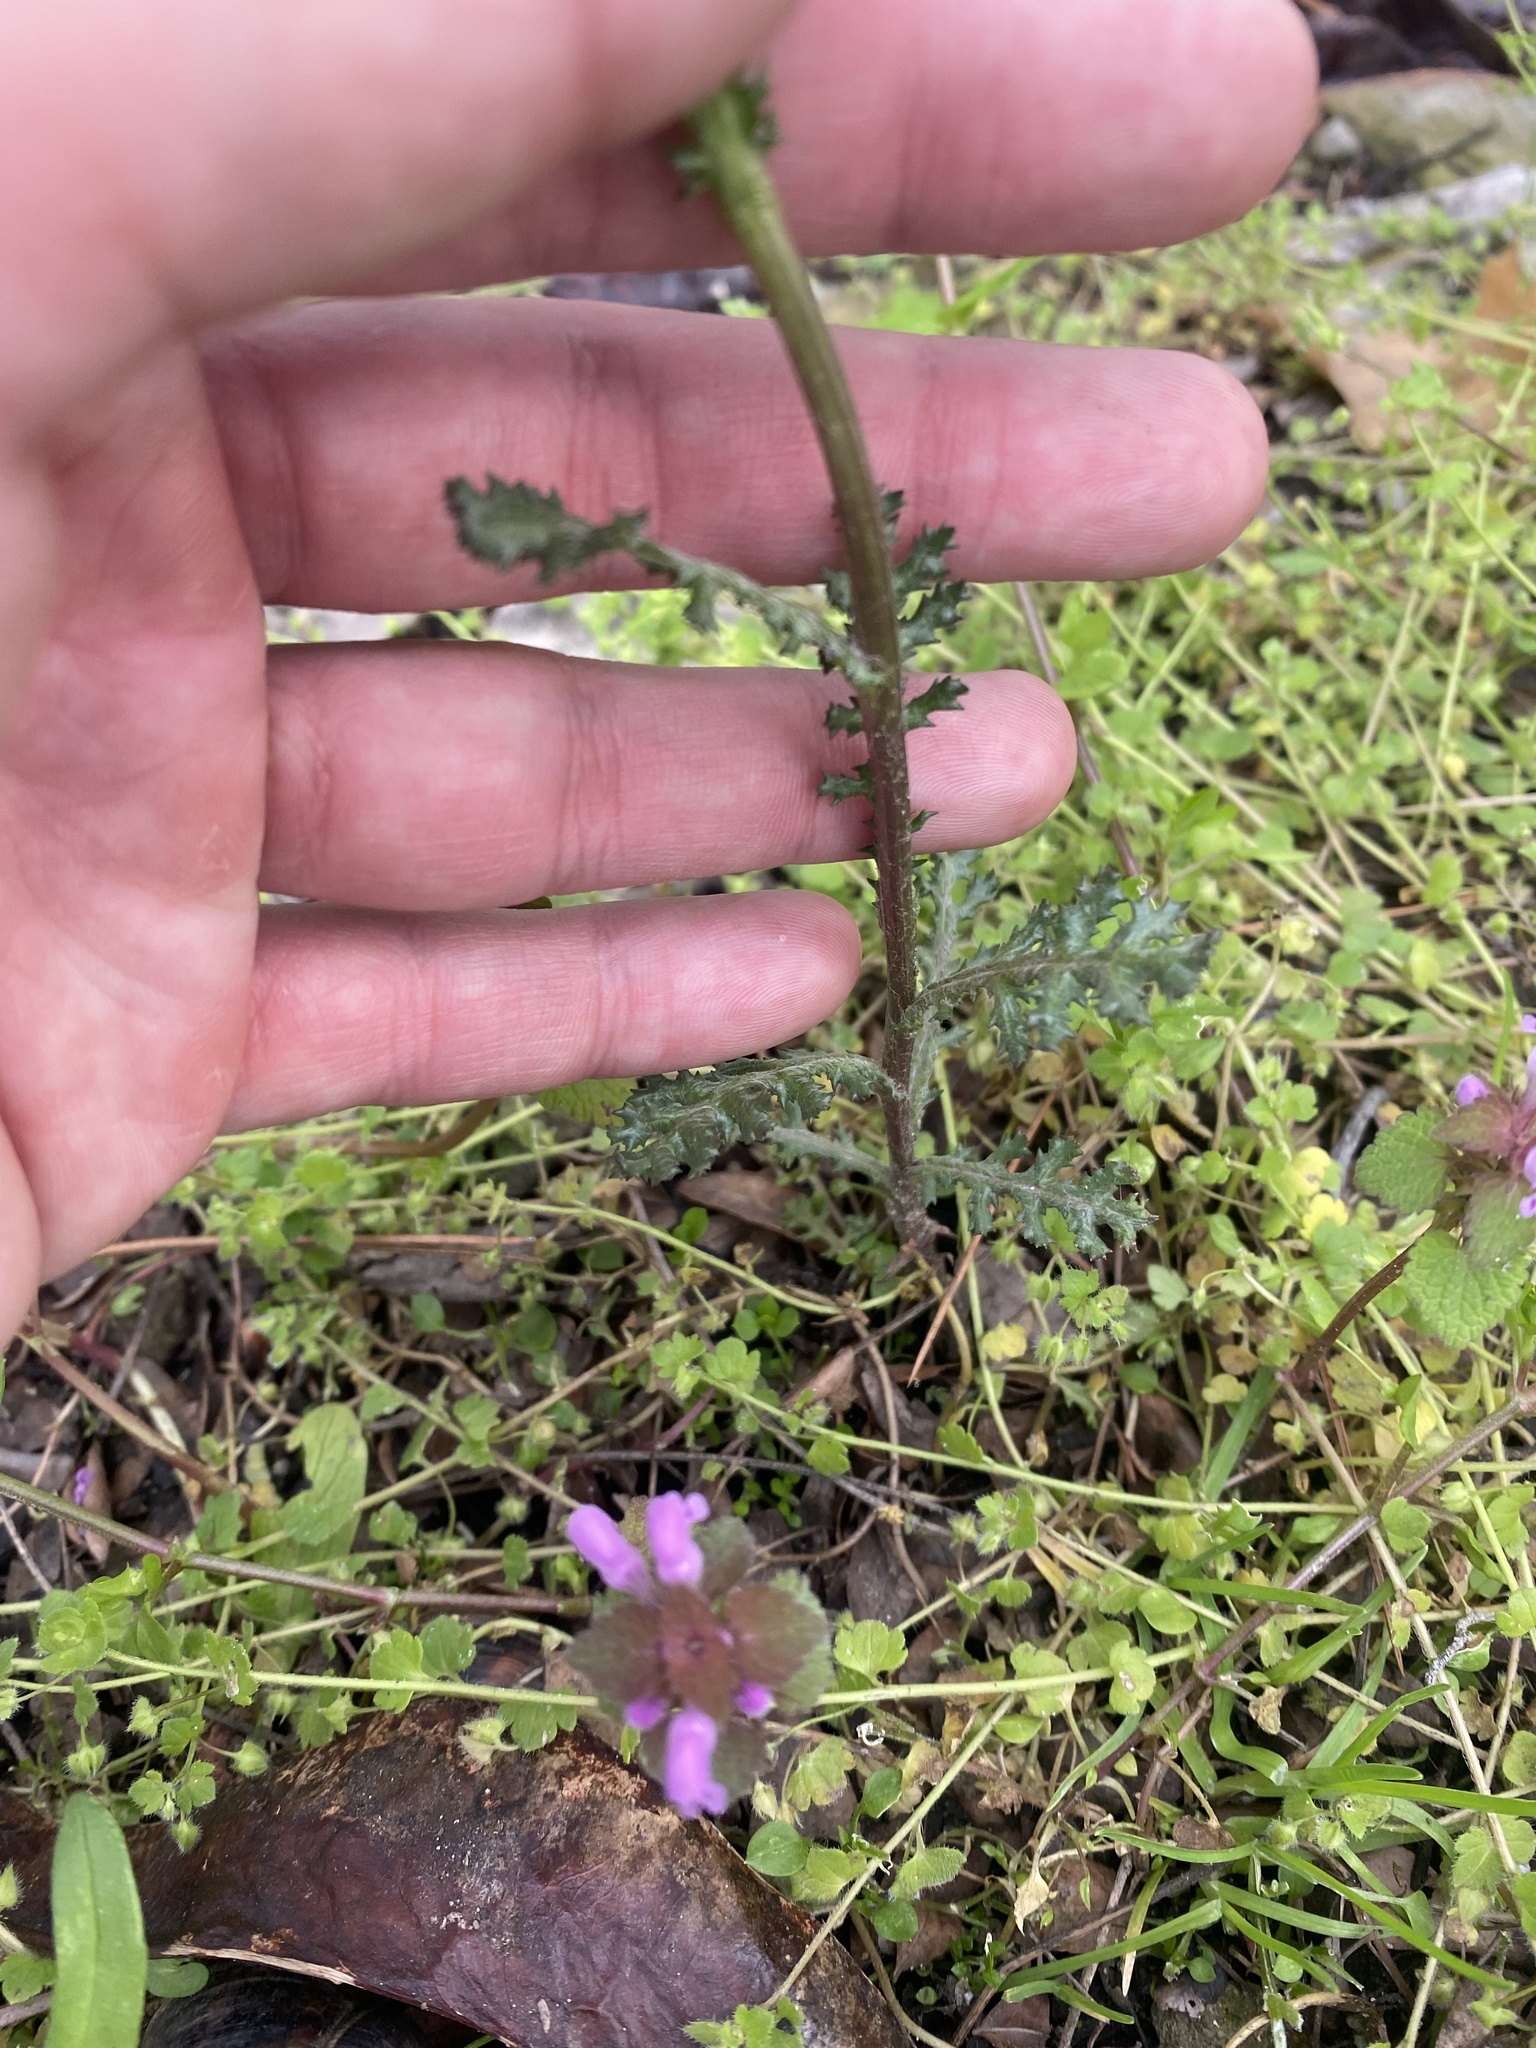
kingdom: Plantae
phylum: Tracheophyta
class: Magnoliopsida
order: Asterales
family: Asteraceae
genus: Senecio
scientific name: Senecio vernalis
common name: Eastern groundsel
